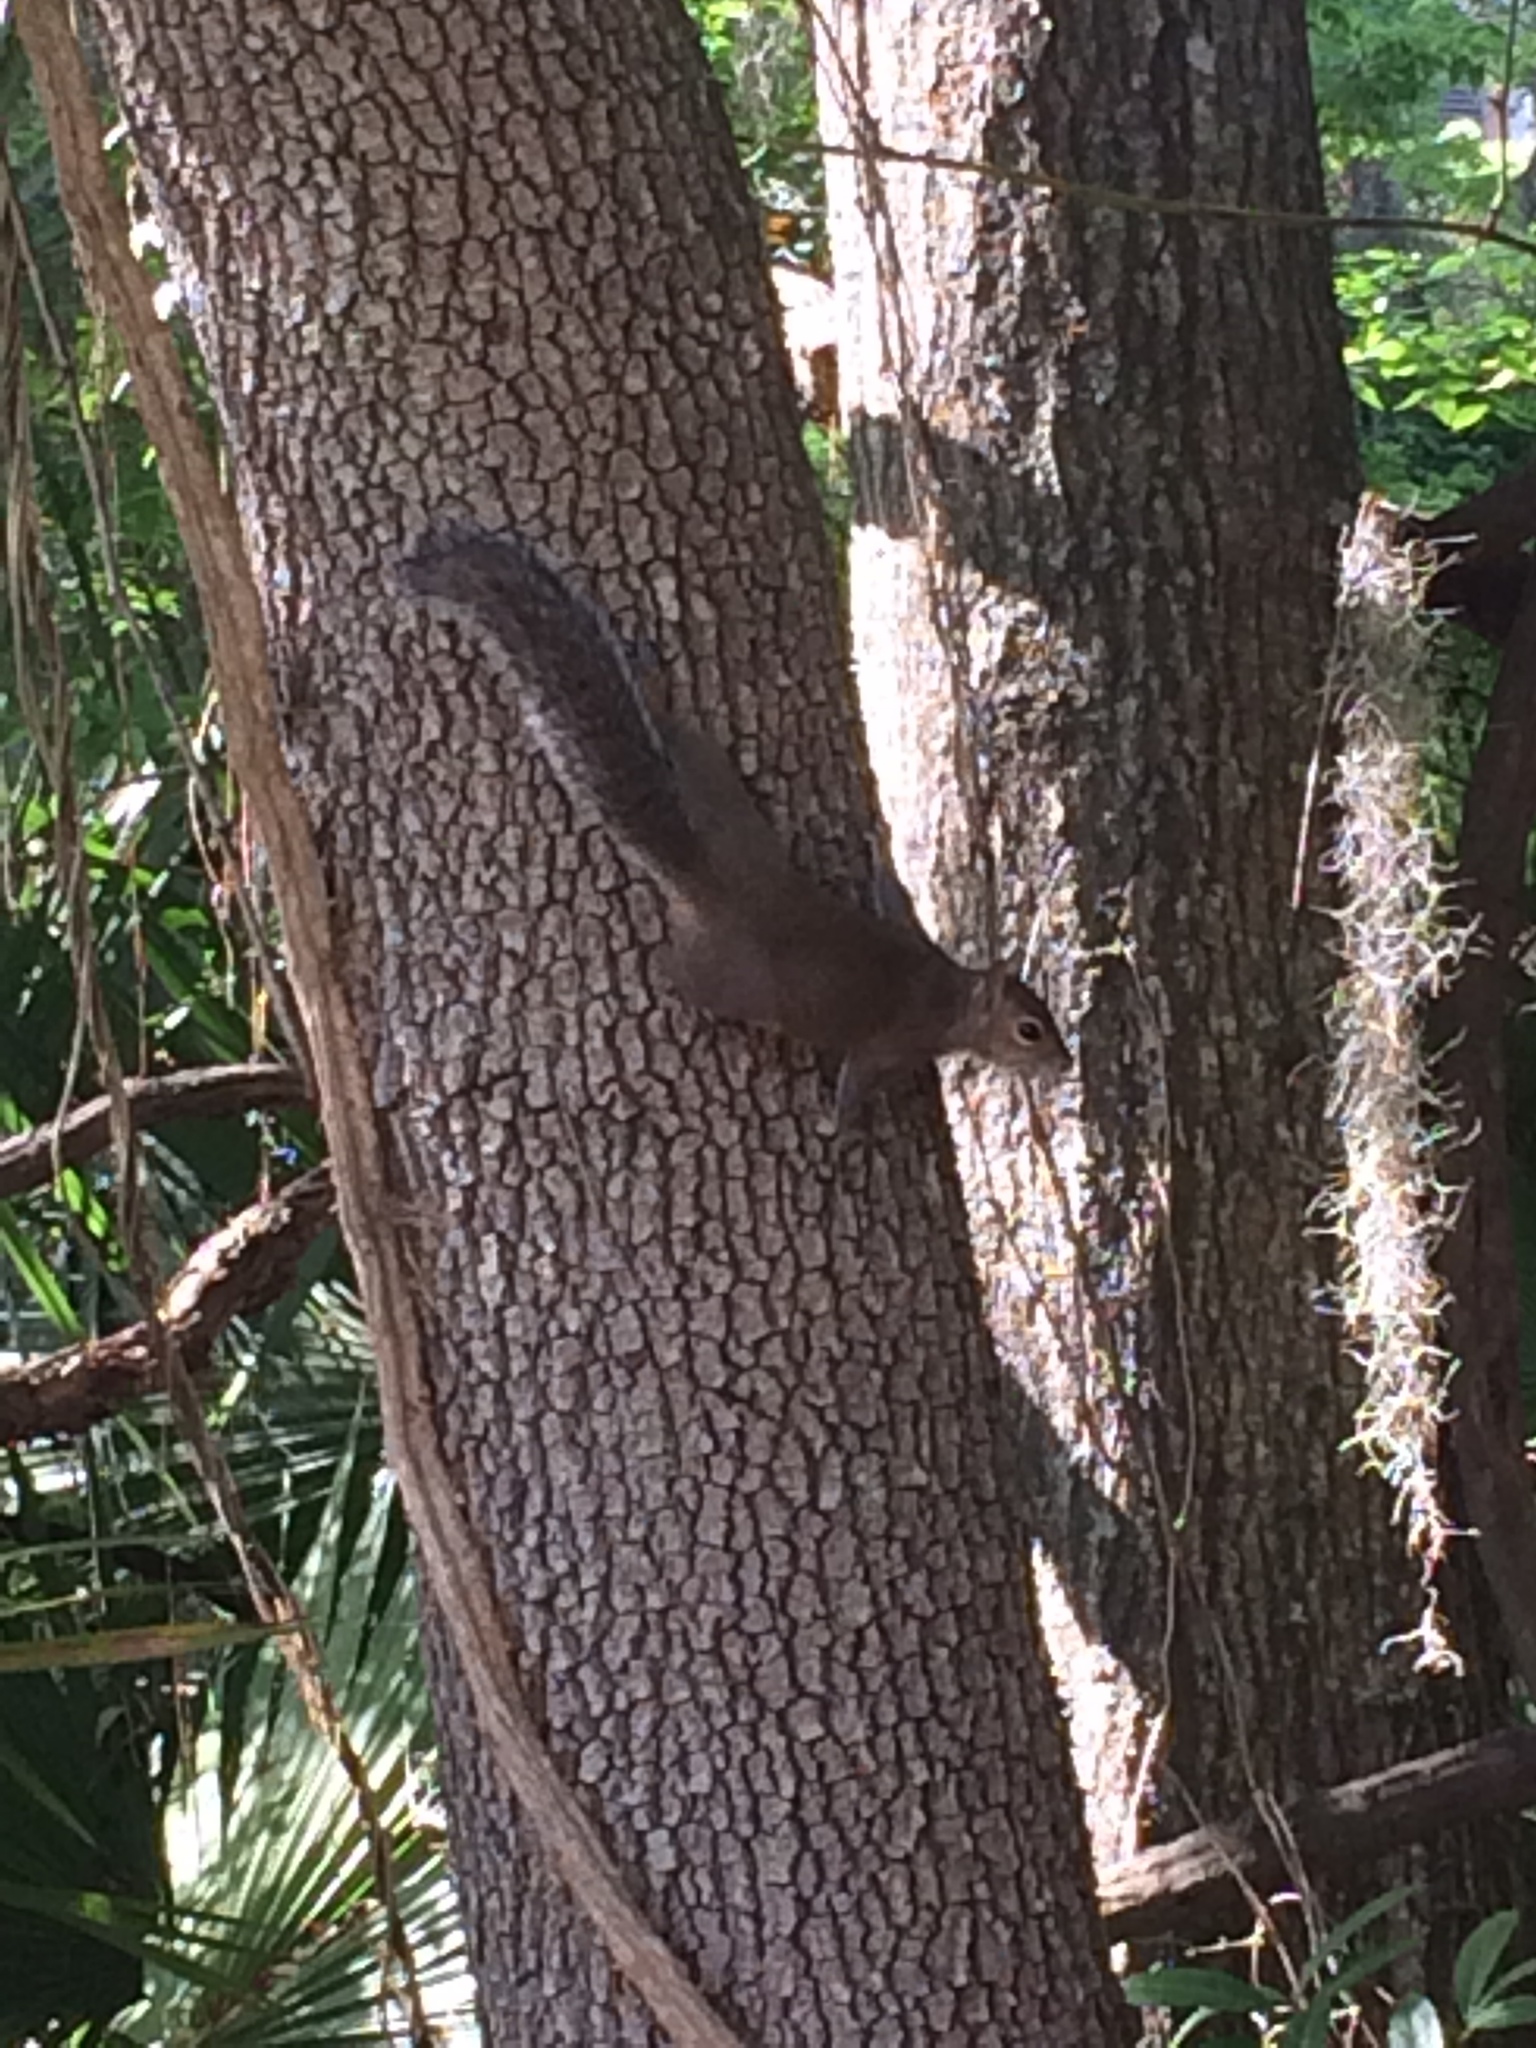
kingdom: Animalia
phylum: Chordata
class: Mammalia
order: Rodentia
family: Sciuridae
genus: Sciurus
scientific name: Sciurus carolinensis
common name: Eastern gray squirrel
